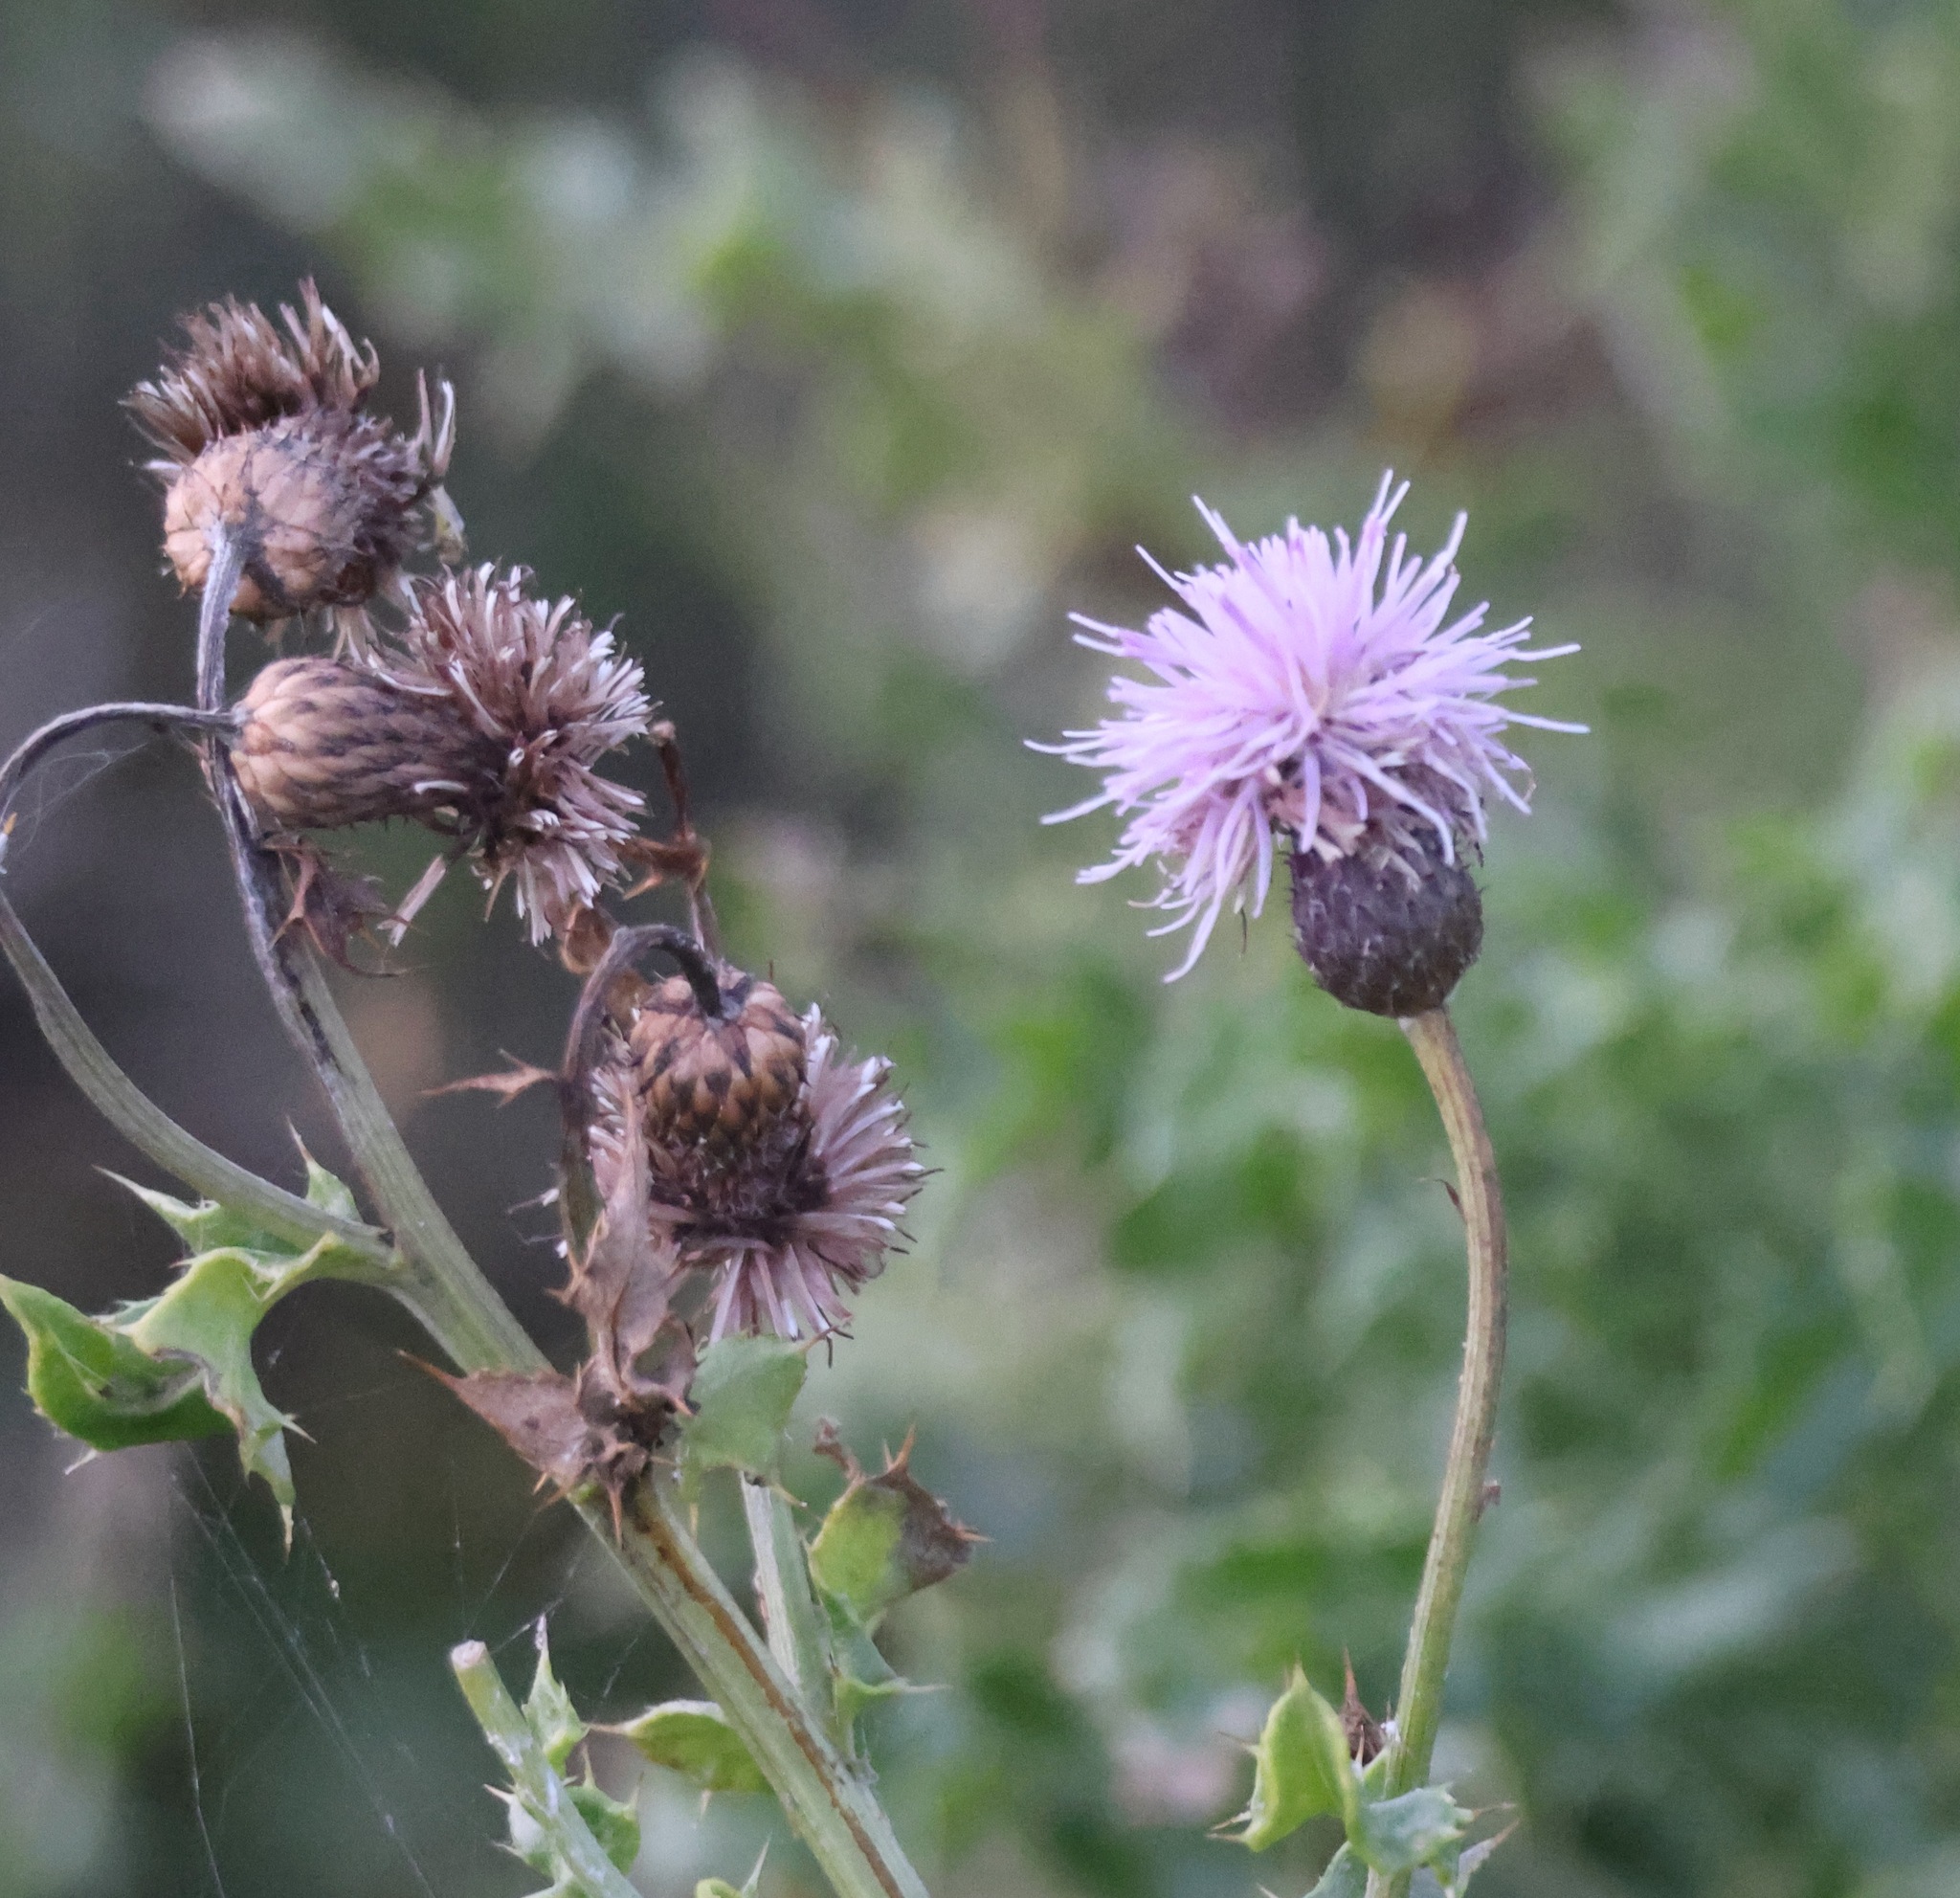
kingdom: Plantae
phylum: Tracheophyta
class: Magnoliopsida
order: Asterales
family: Asteraceae
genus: Cirsium
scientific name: Cirsium arvense
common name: Creeping thistle
